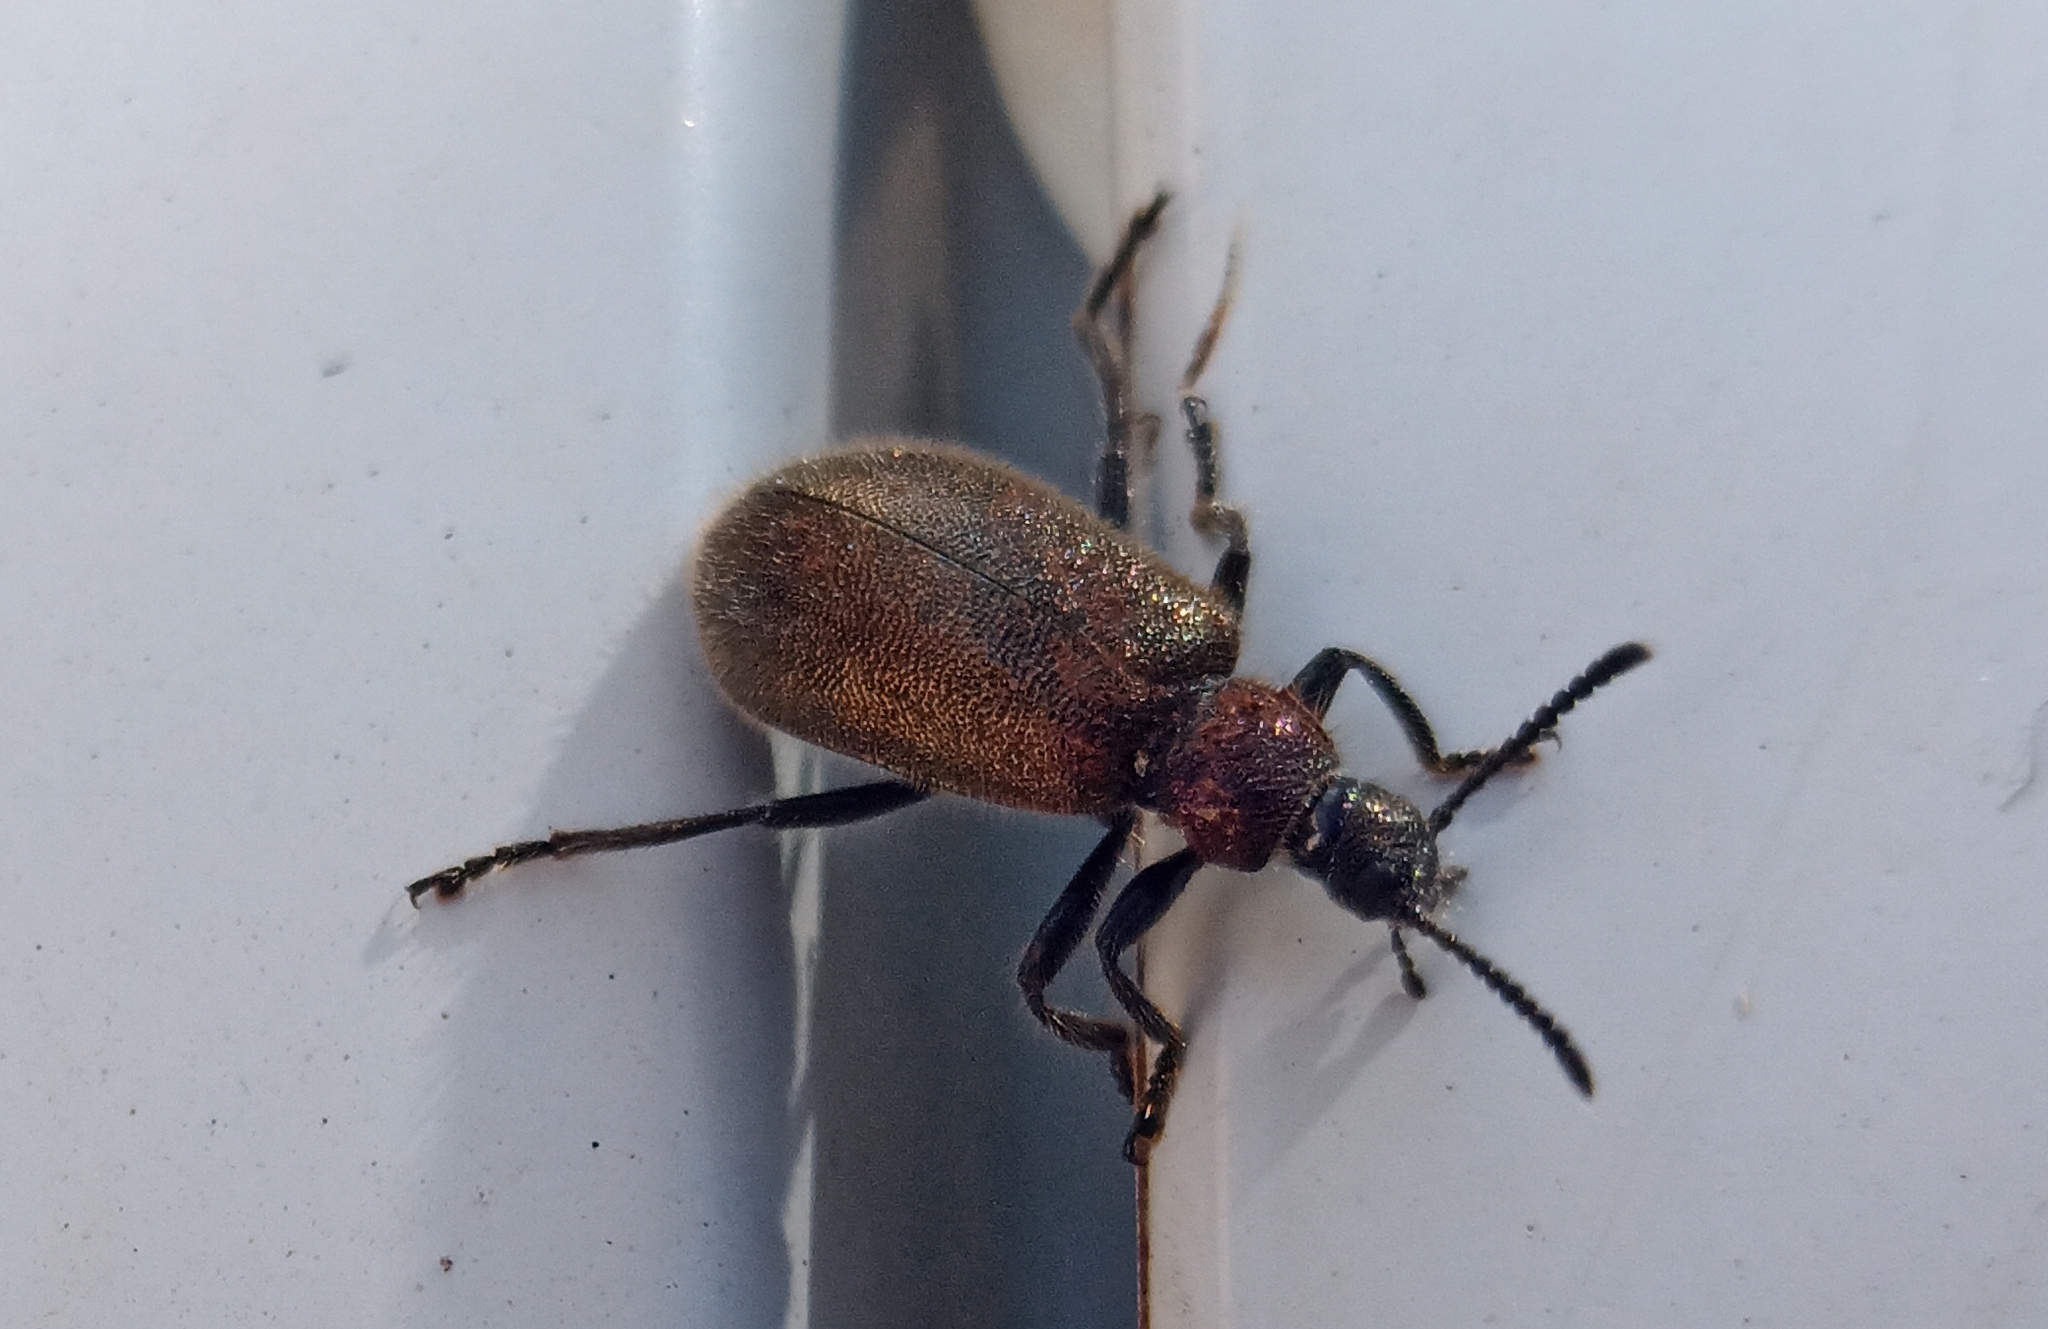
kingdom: Animalia
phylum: Arthropoda
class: Insecta
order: Coleoptera
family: Tenebrionidae
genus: Lagria
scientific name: Lagria villosa
